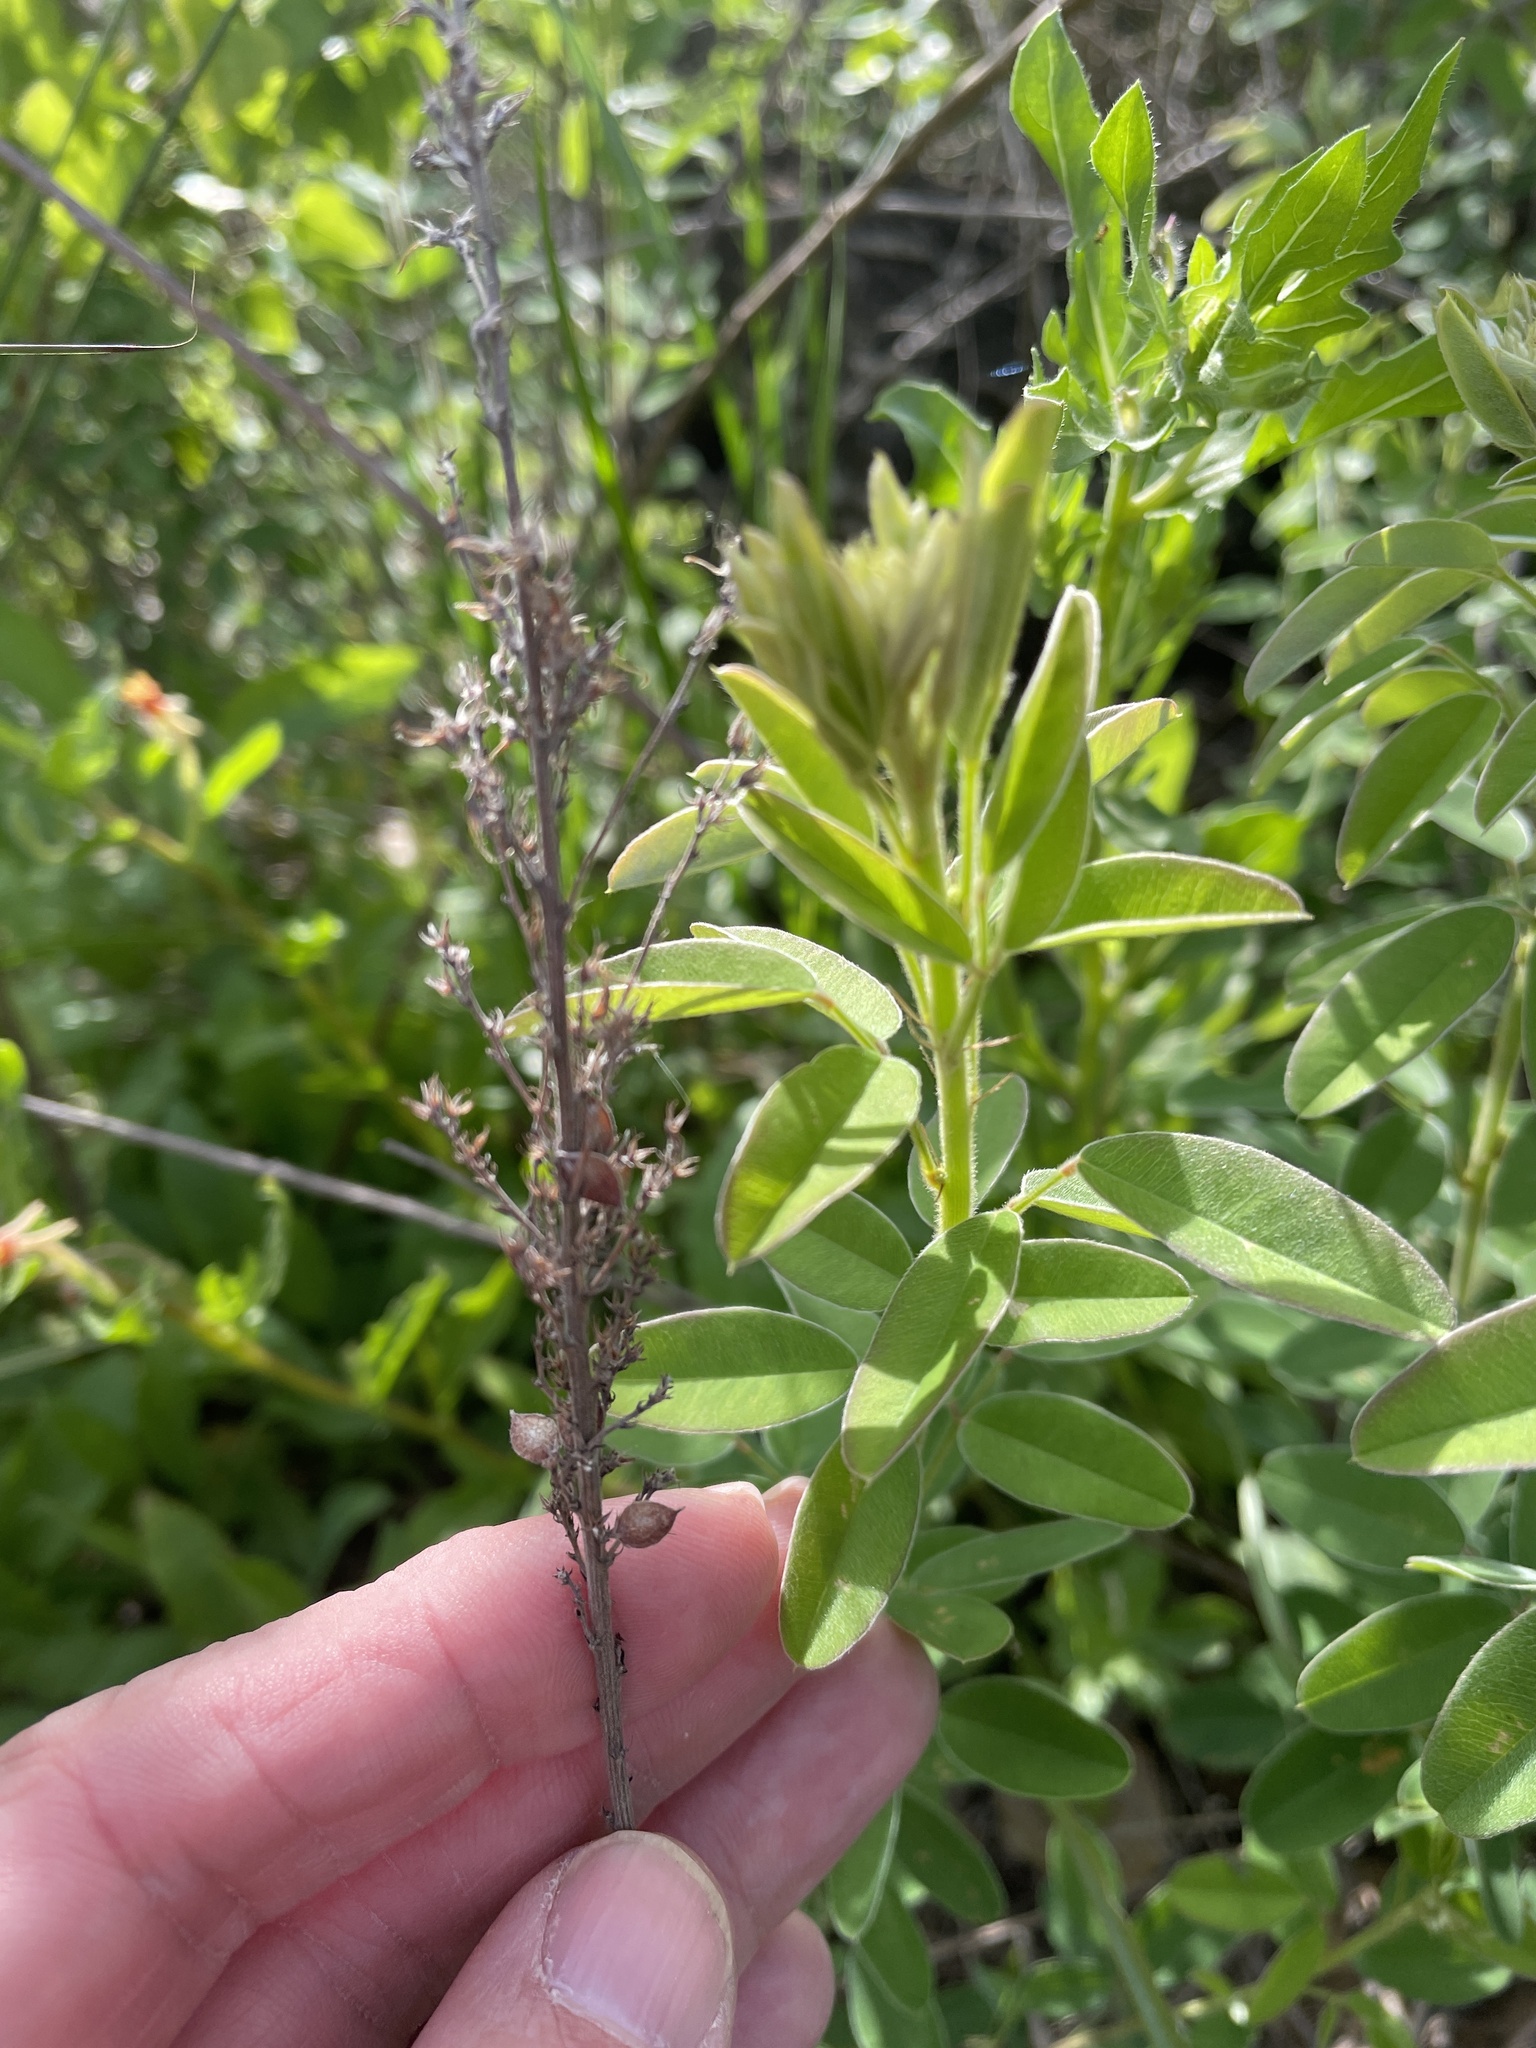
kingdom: Plantae
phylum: Tracheophyta
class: Magnoliopsida
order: Fabales
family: Fabaceae
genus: Lespedeza
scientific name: Lespedeza stuevei
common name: Tall bush-clover
